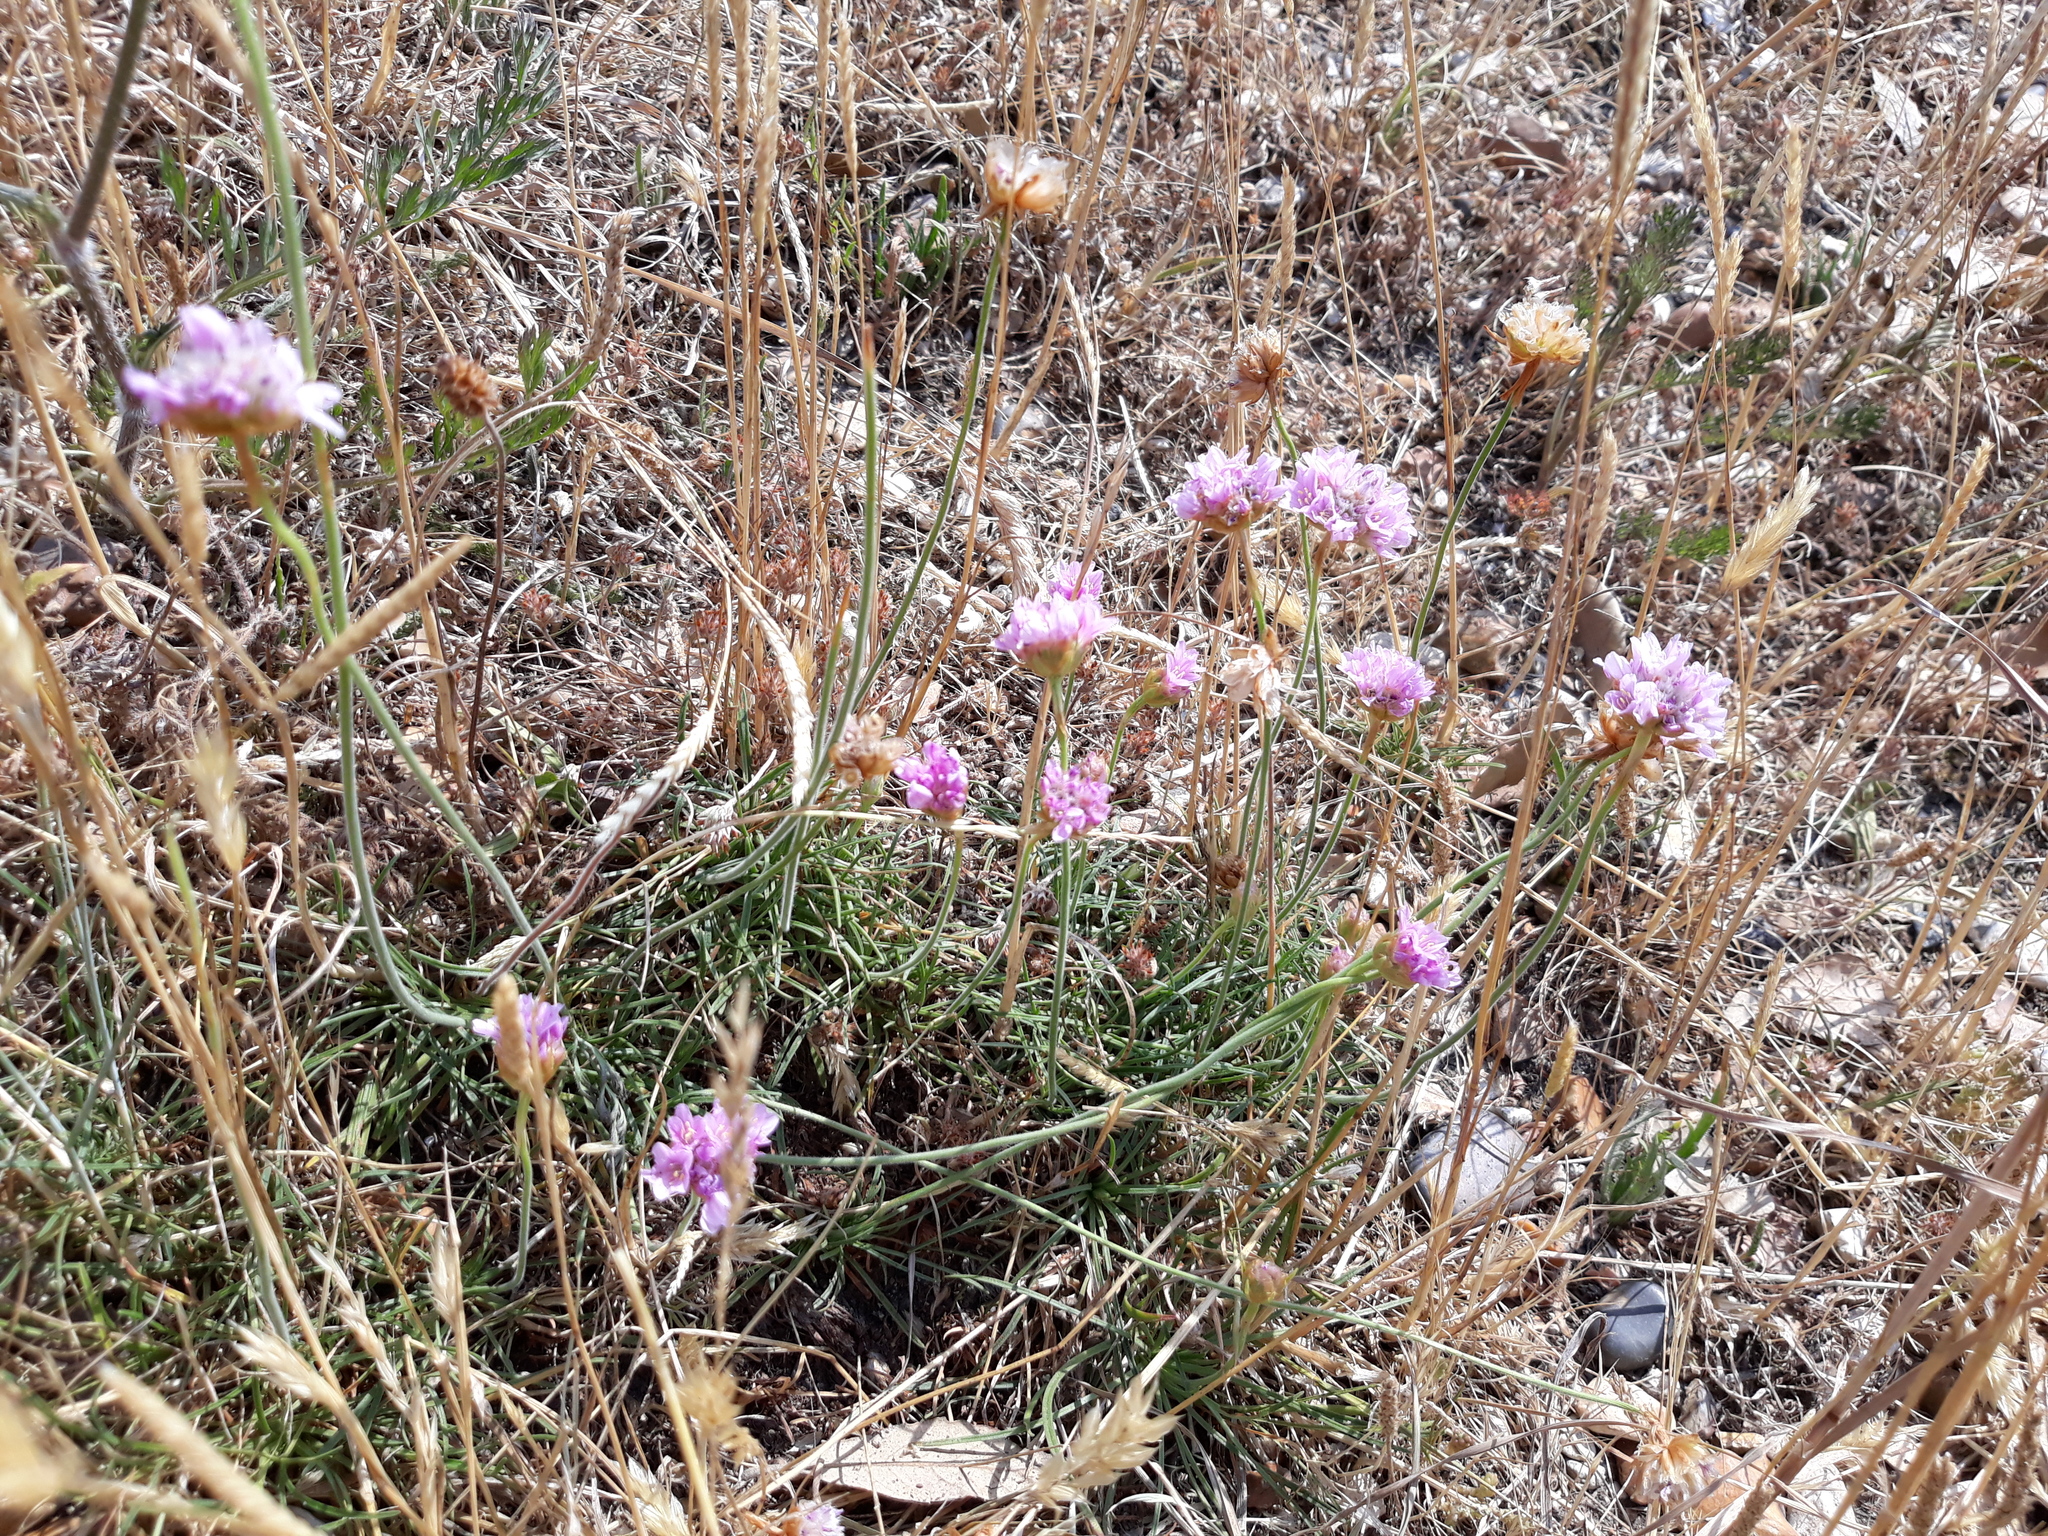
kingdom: Plantae
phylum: Tracheophyta
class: Magnoliopsida
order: Caryophyllales
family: Plumbaginaceae
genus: Armeria
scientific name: Armeria maritima
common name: Thrift
